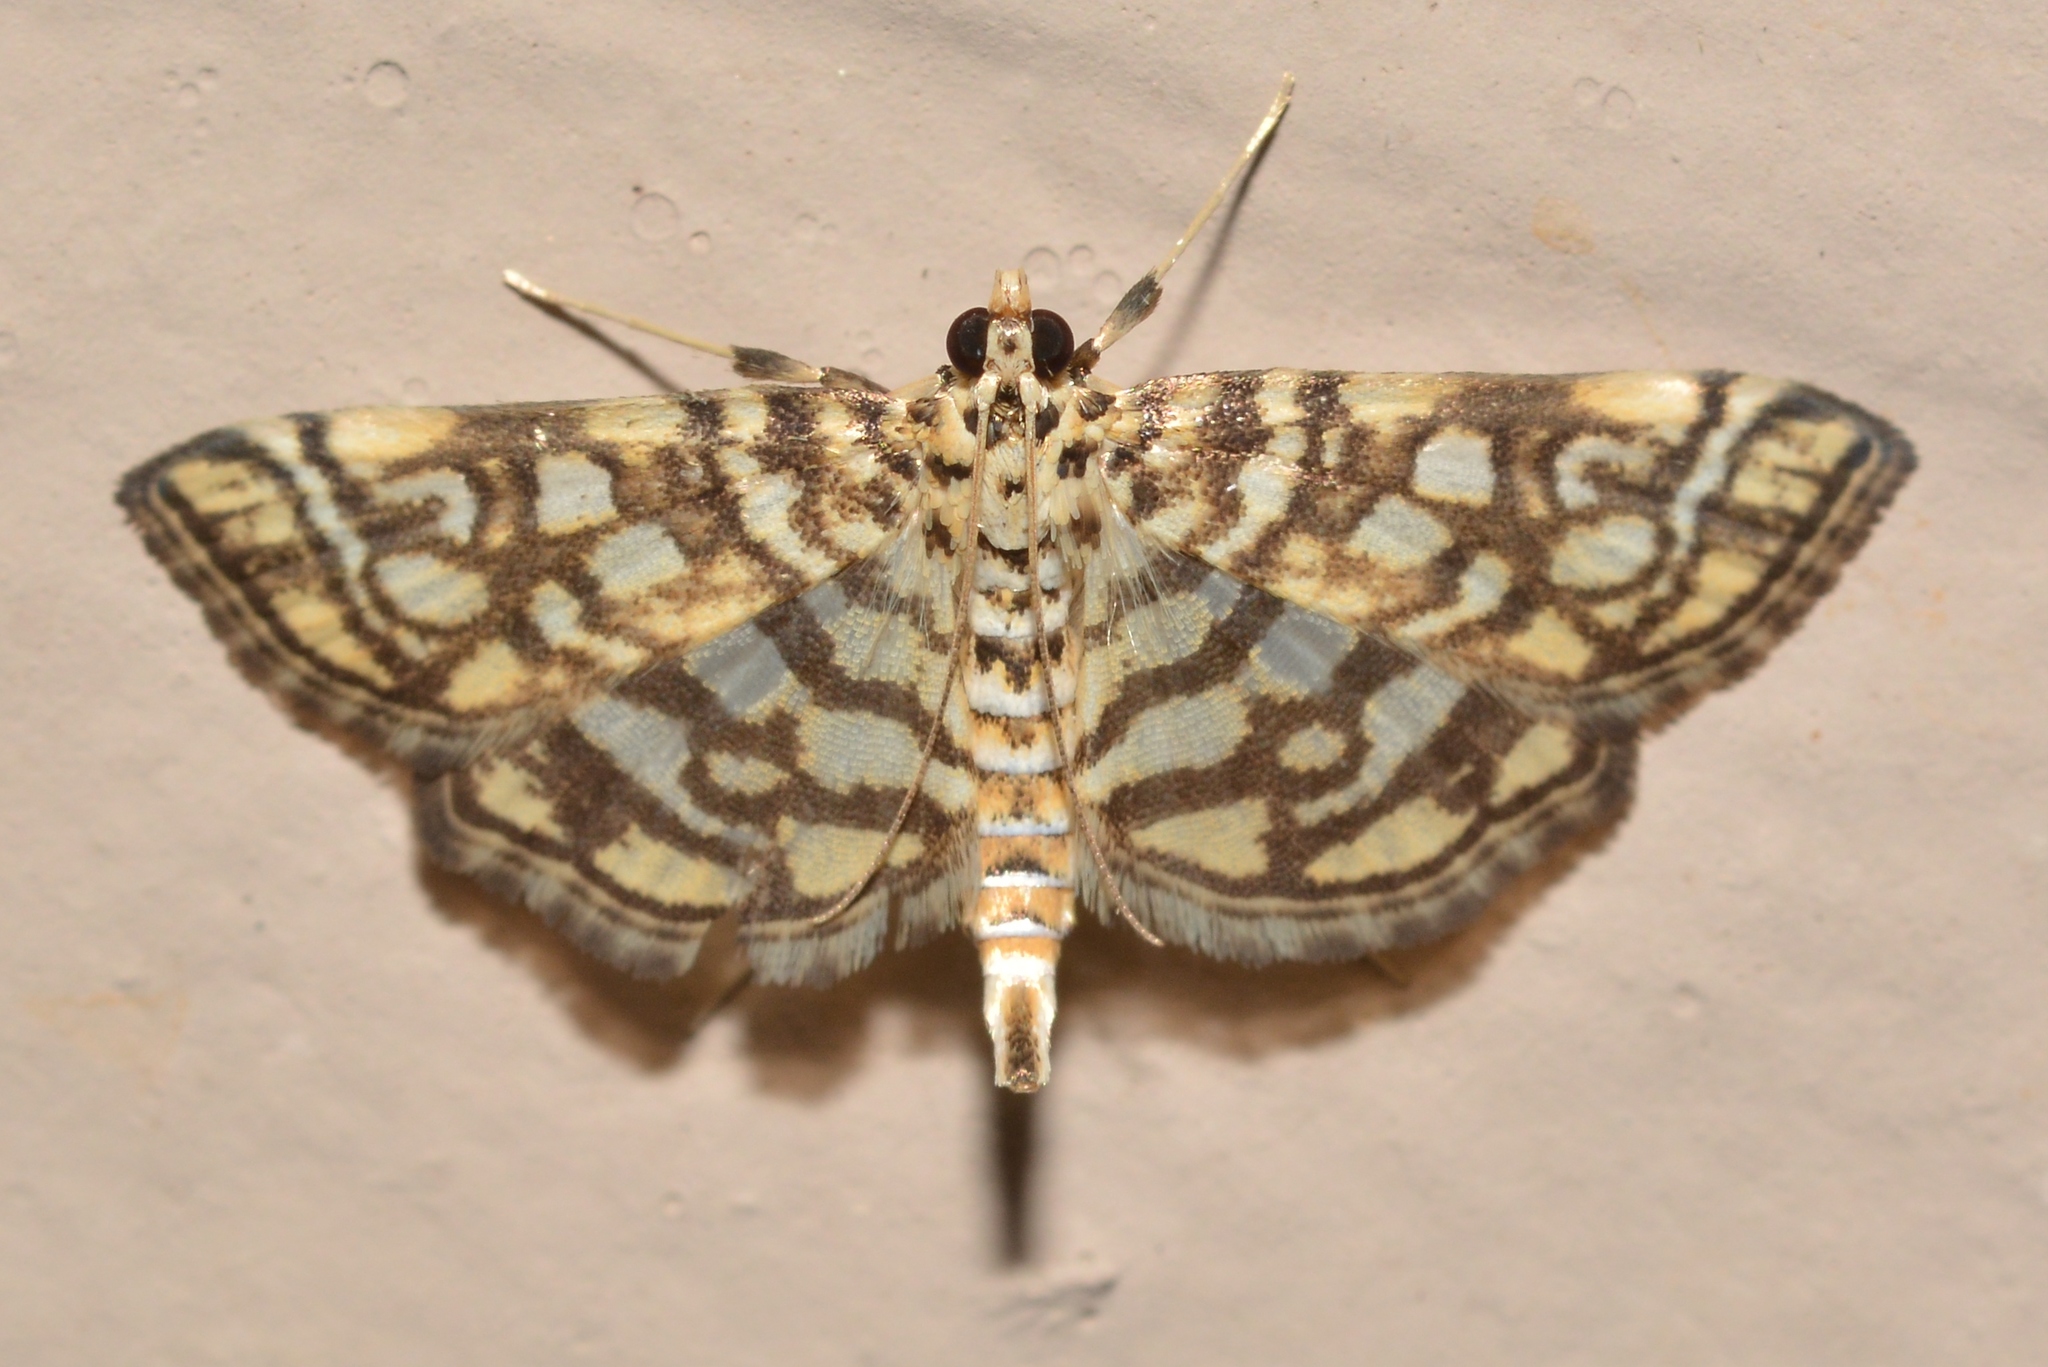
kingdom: Animalia
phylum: Arthropoda
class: Insecta
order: Lepidoptera
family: Crambidae
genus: Lygropia
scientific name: Lygropia rivulalis
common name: Bog lygropia moth
